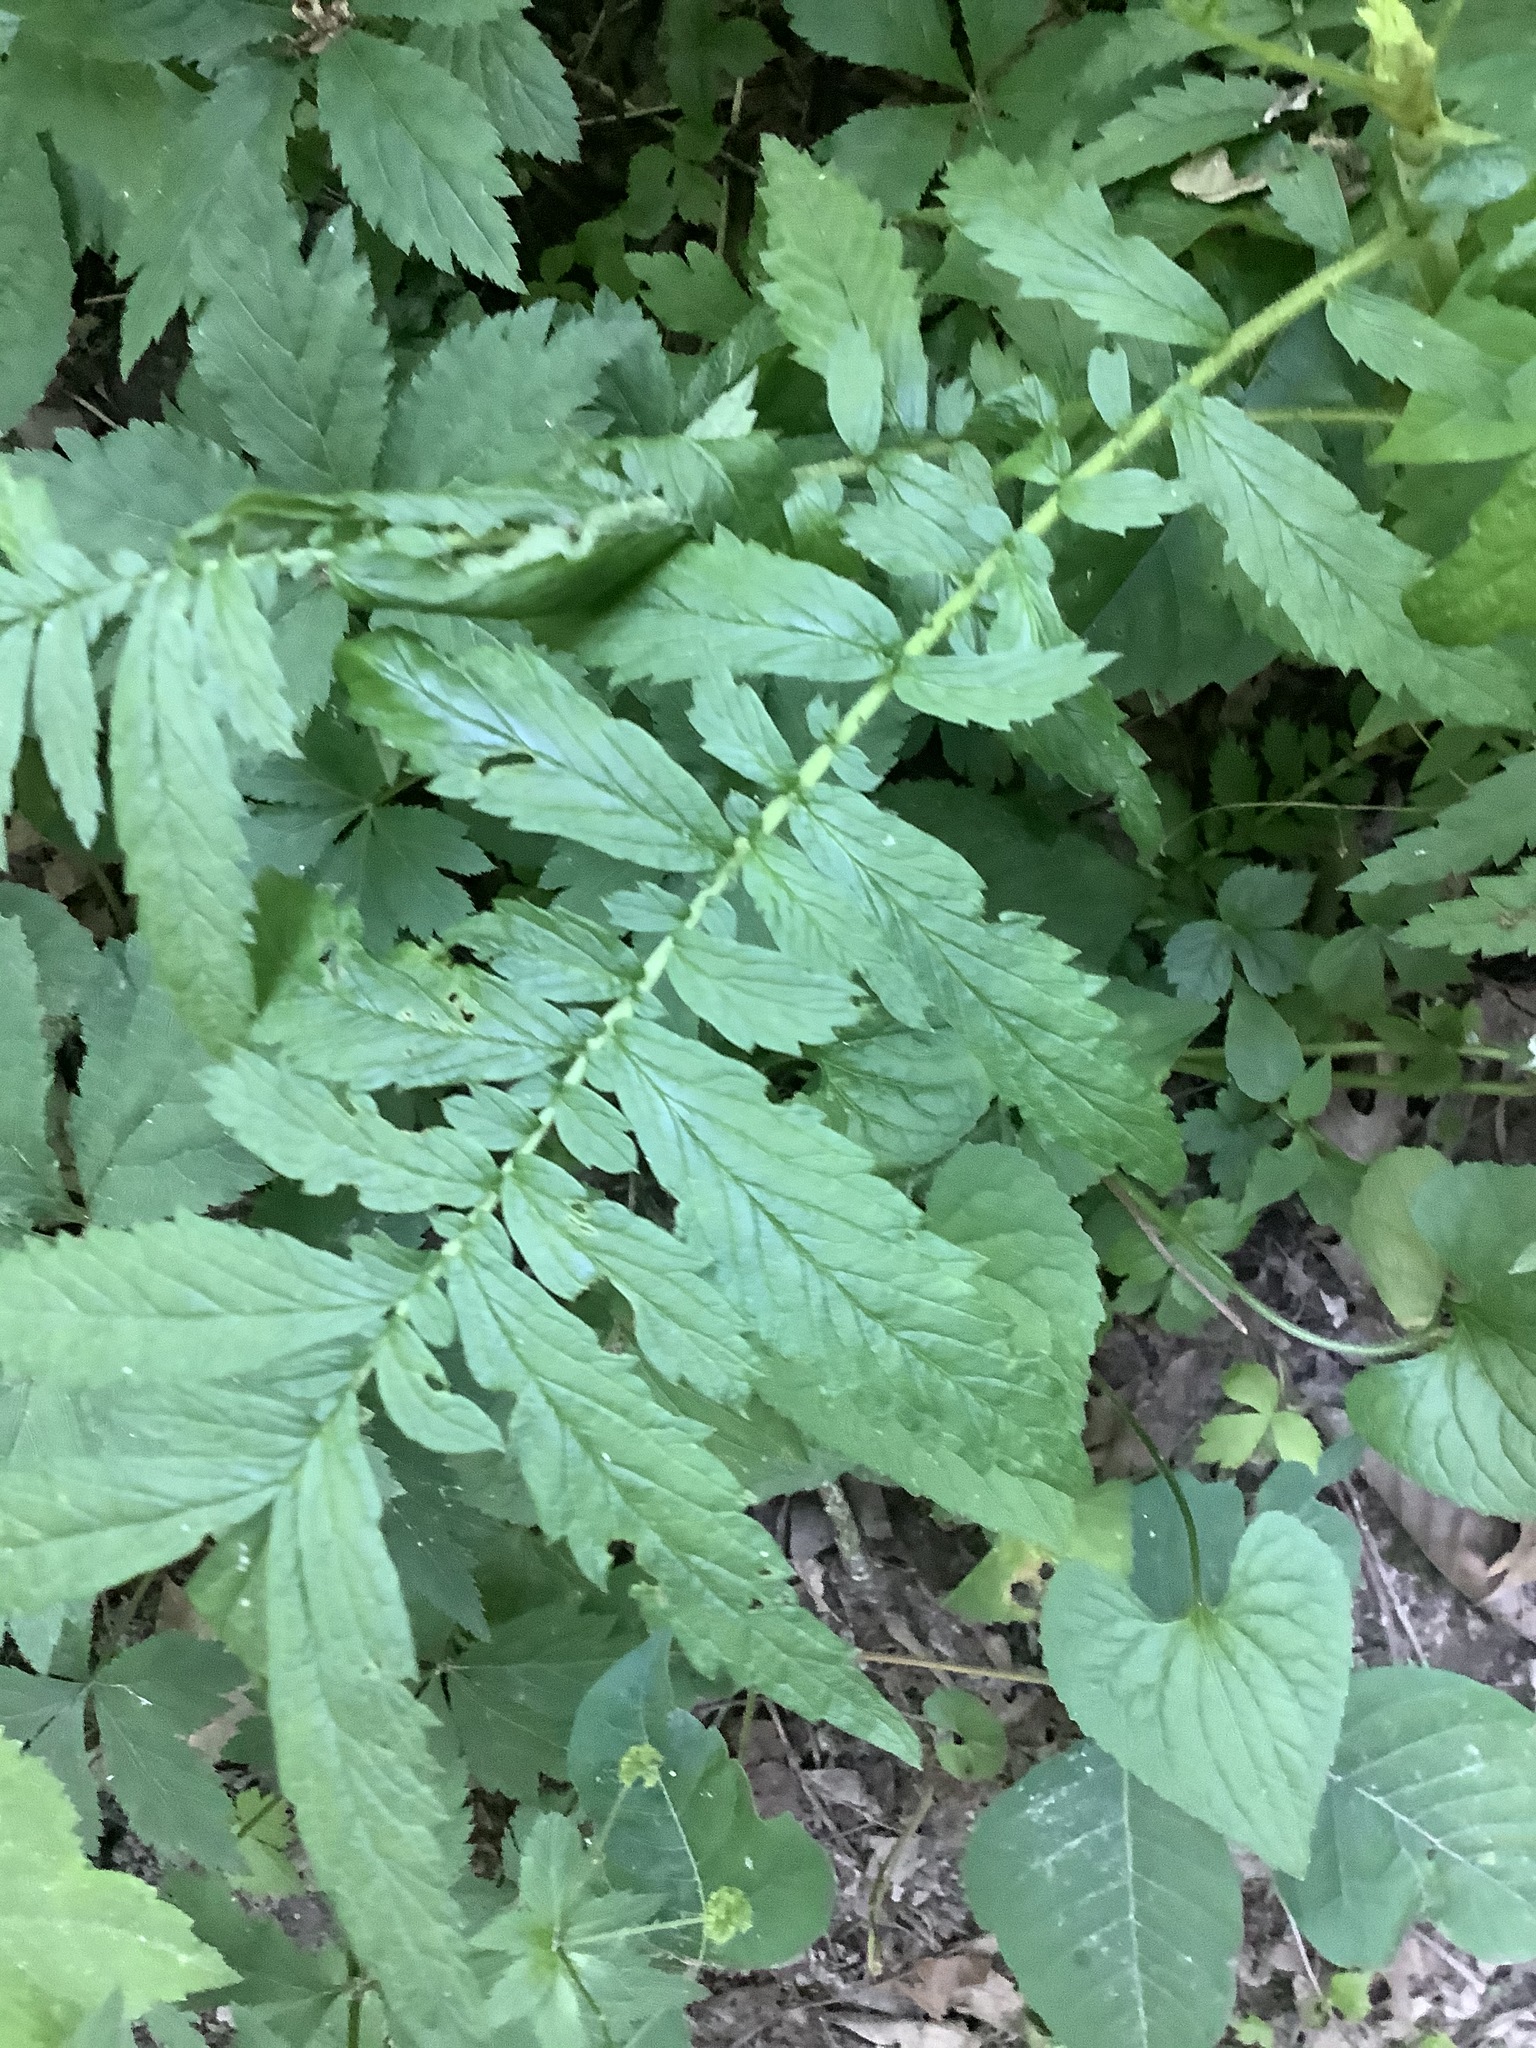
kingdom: Plantae
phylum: Tracheophyta
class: Magnoliopsida
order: Rosales
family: Rosaceae
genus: Agrimonia
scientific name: Agrimonia parviflora
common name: Harvest-lice
